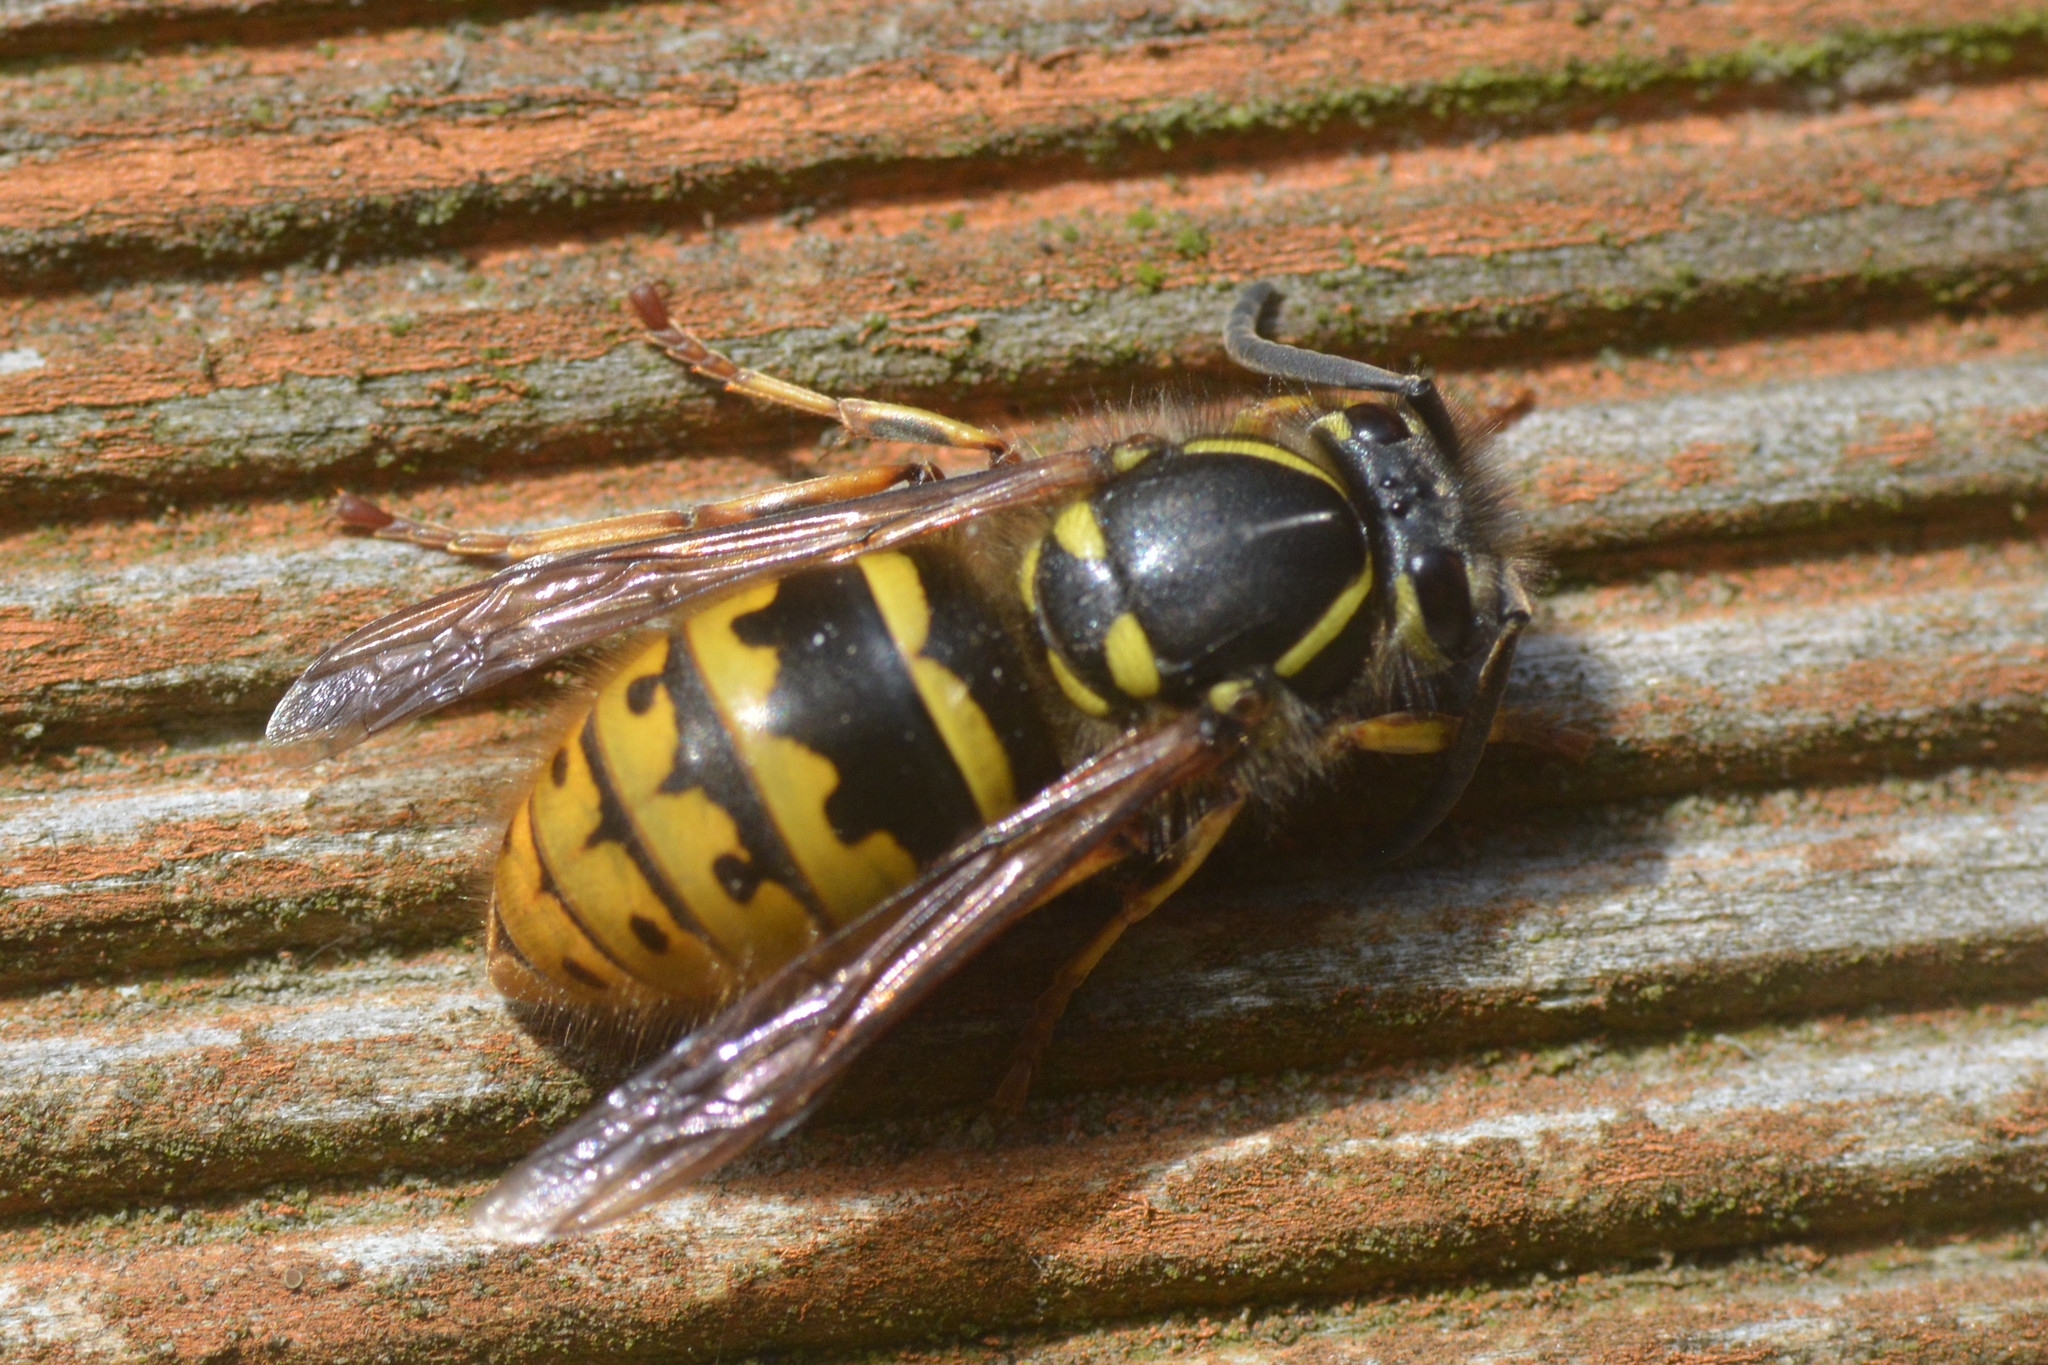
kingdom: Animalia
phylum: Arthropoda
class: Insecta
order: Hymenoptera
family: Vespidae
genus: Vespula
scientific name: Vespula vulgaris
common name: Common wasp
